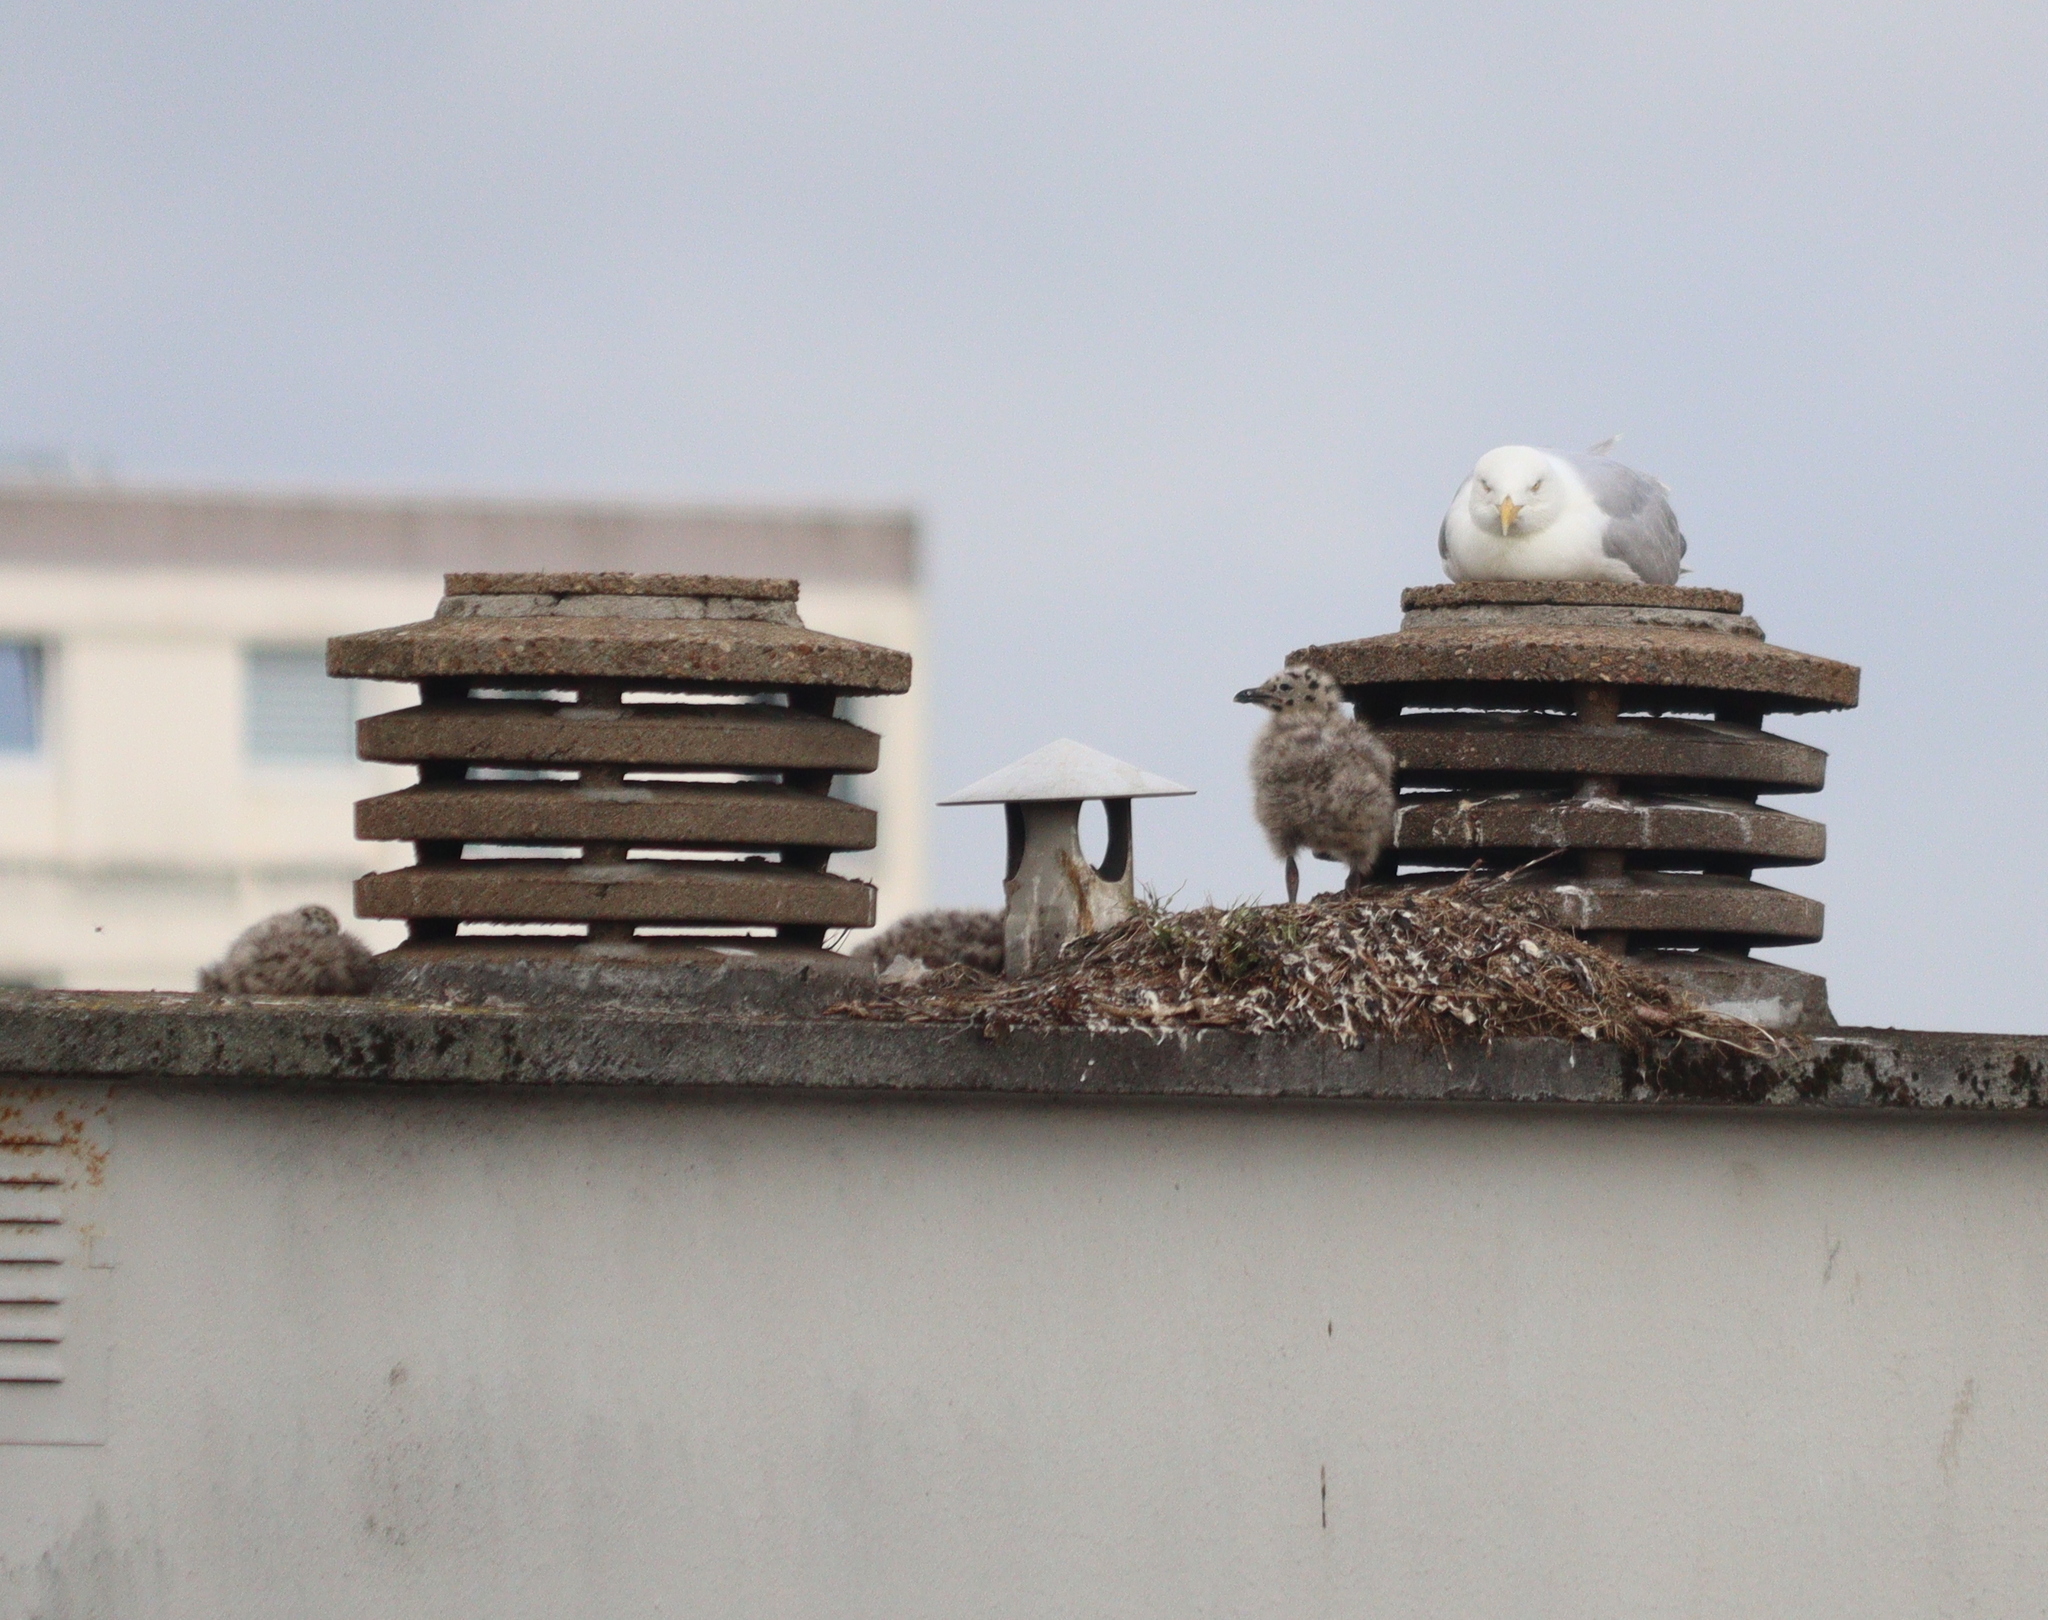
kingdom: Animalia
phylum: Chordata
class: Aves
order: Charadriiformes
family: Laridae
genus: Larus
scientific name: Larus argentatus
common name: Herring gull
